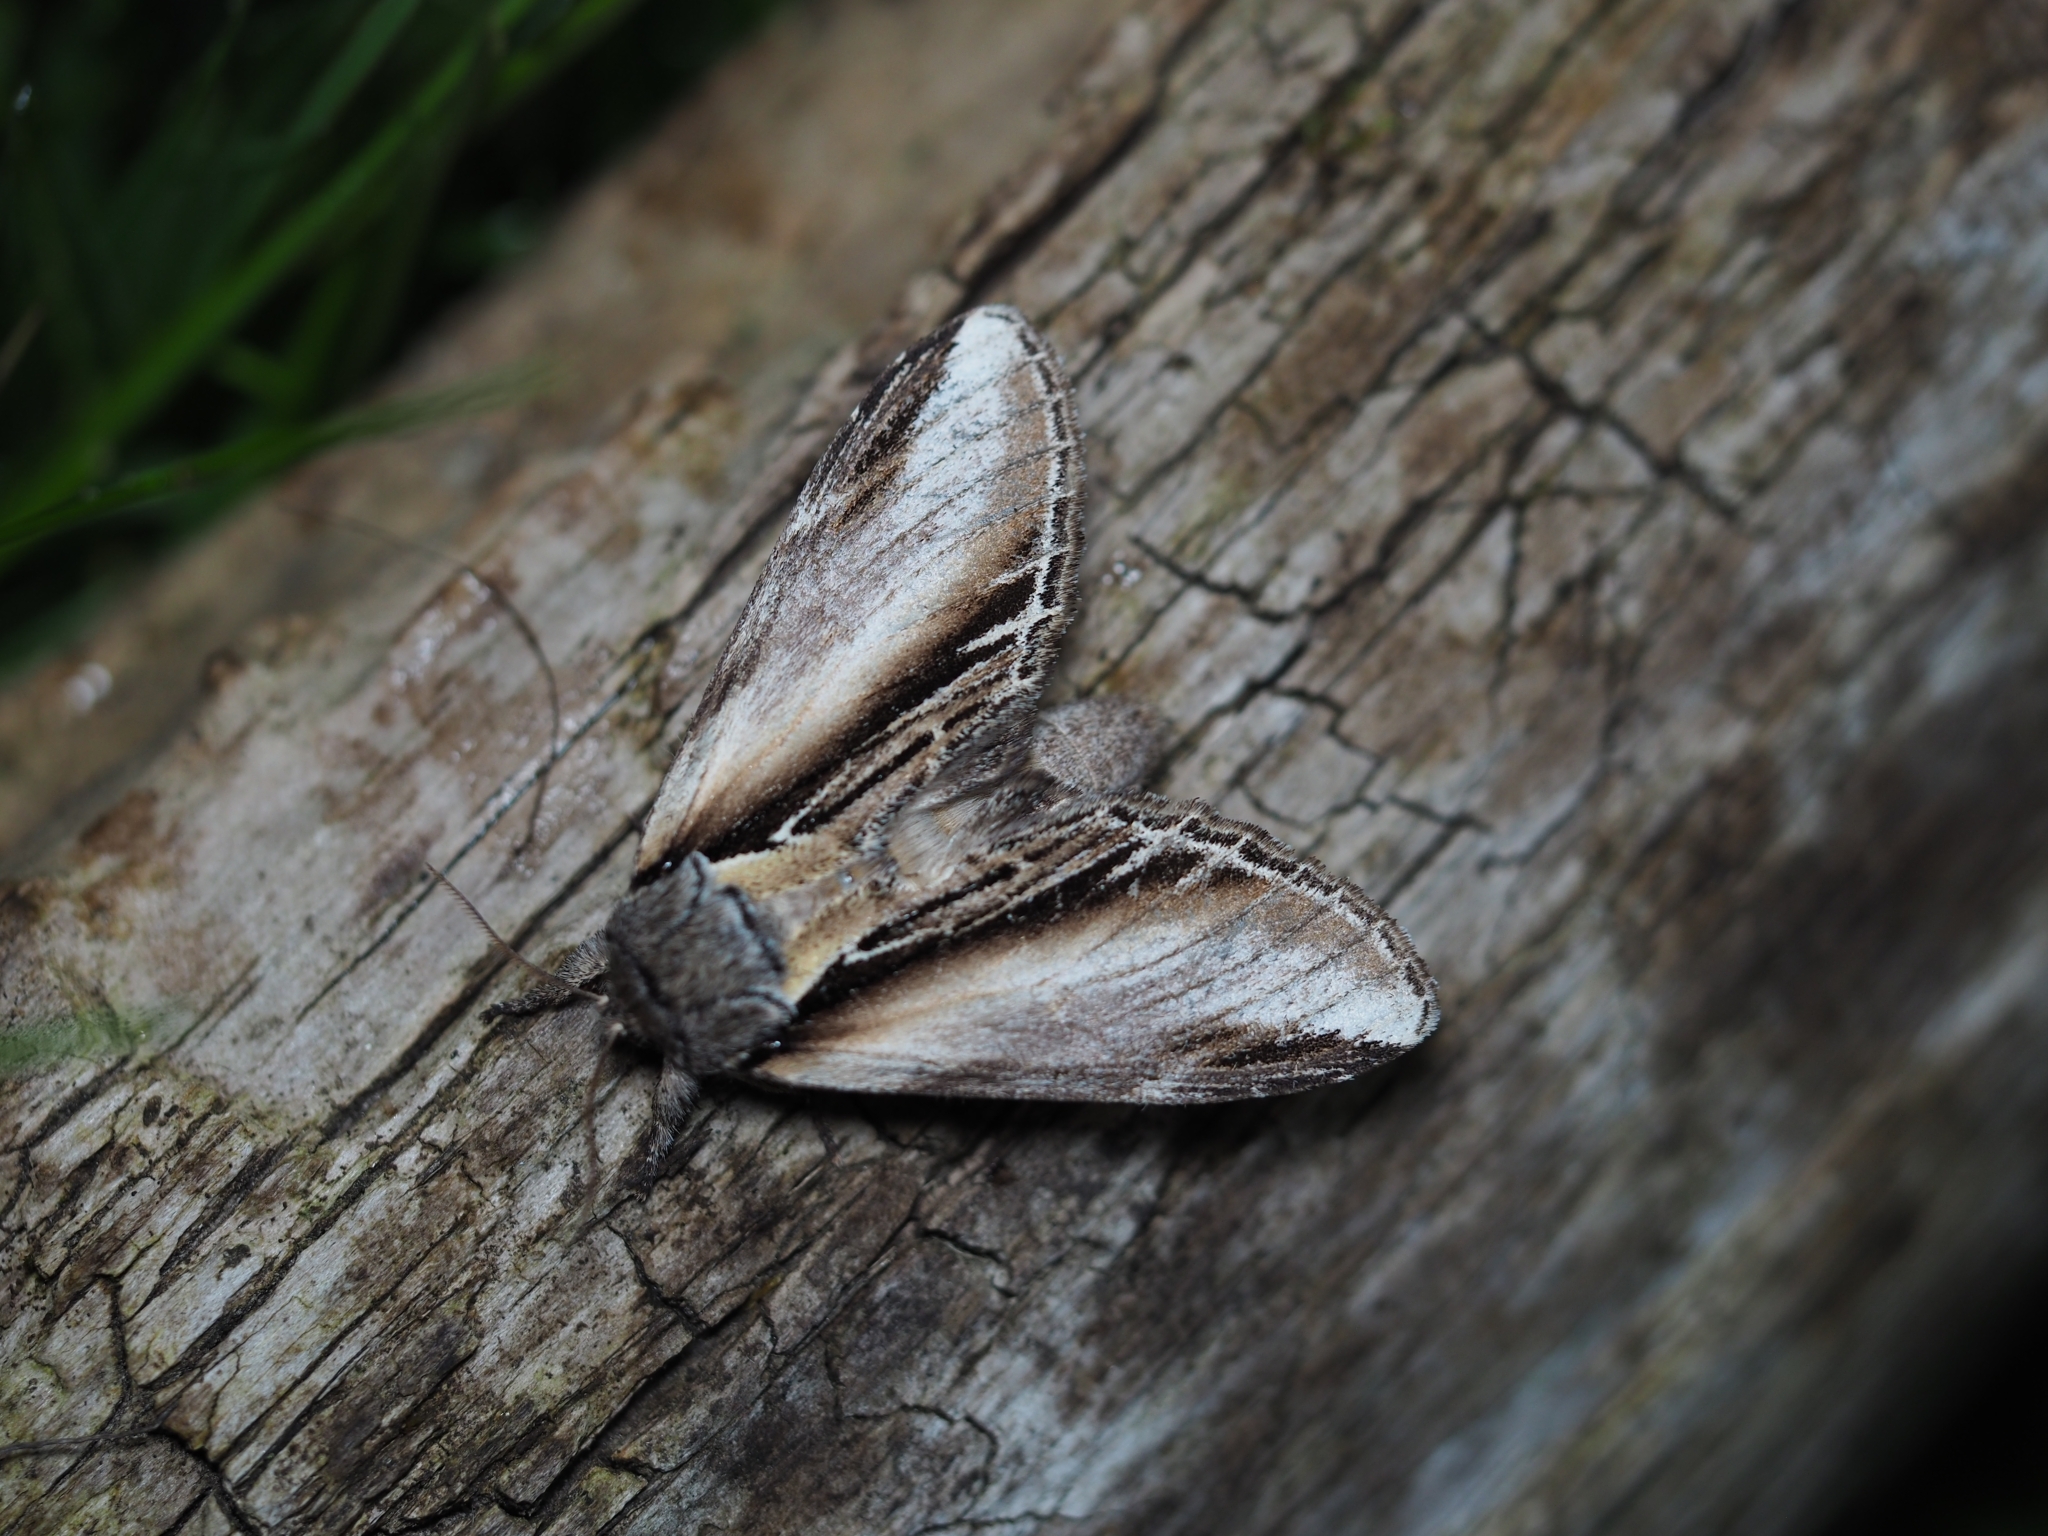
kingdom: Animalia
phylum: Arthropoda
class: Insecta
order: Lepidoptera
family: Notodontidae
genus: Pheosia
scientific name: Pheosia tremula
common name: Swallow prominent
